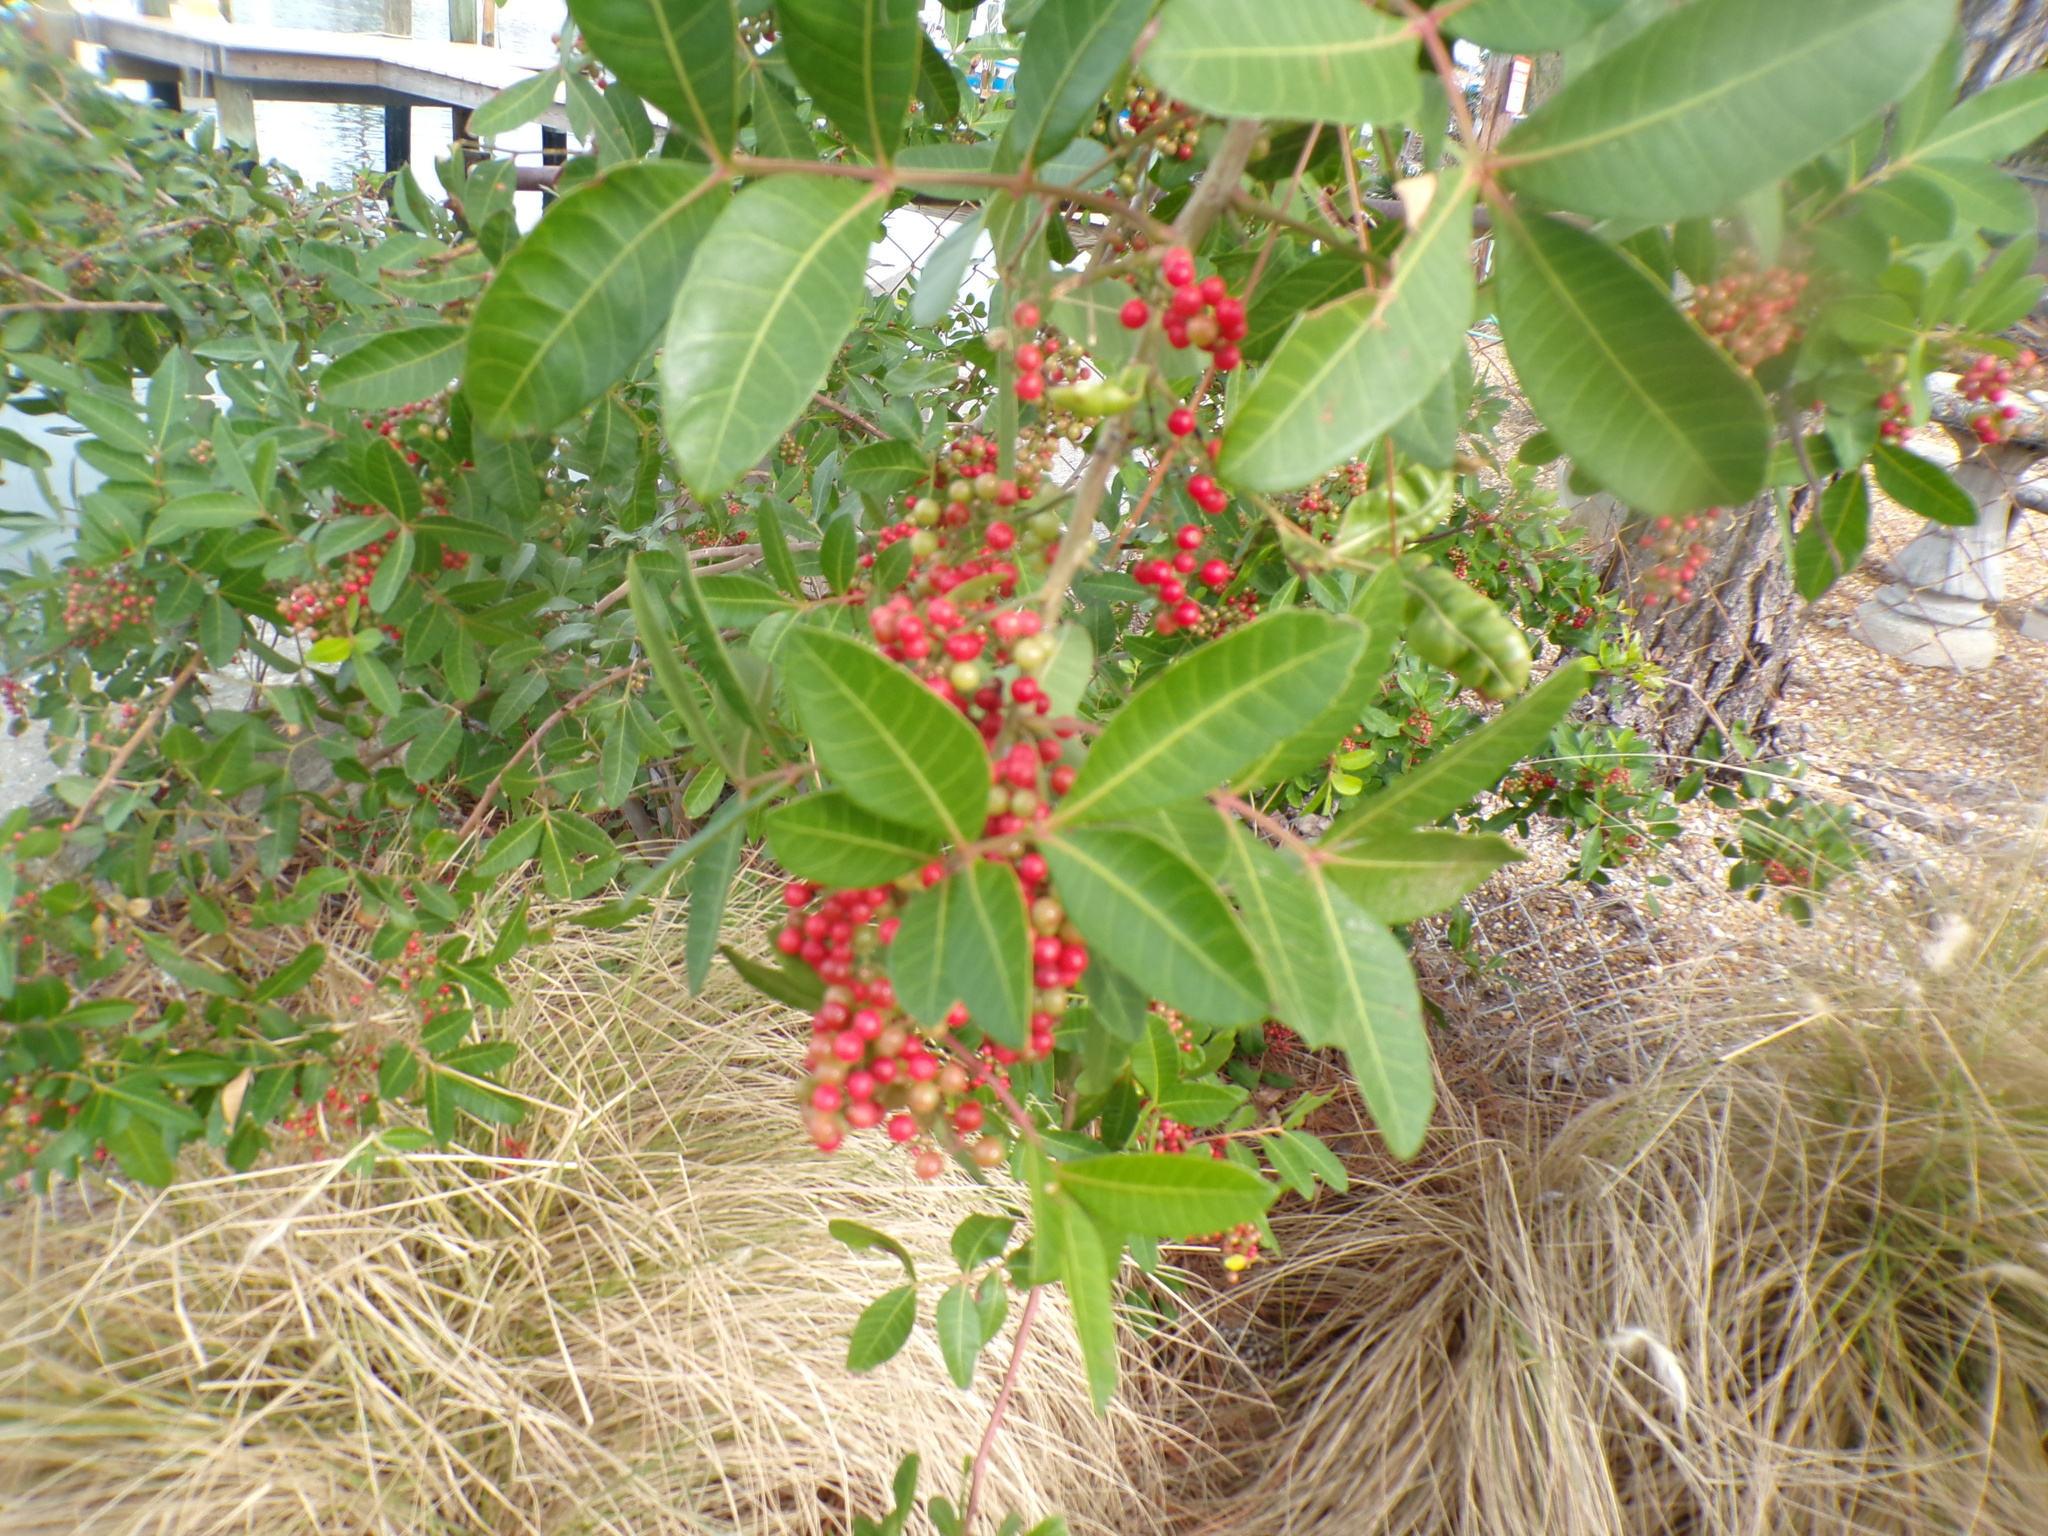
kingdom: Plantae
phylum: Tracheophyta
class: Magnoliopsida
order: Sapindales
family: Anacardiaceae
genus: Schinus
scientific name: Schinus terebinthifolia
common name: Brazilian peppertree
